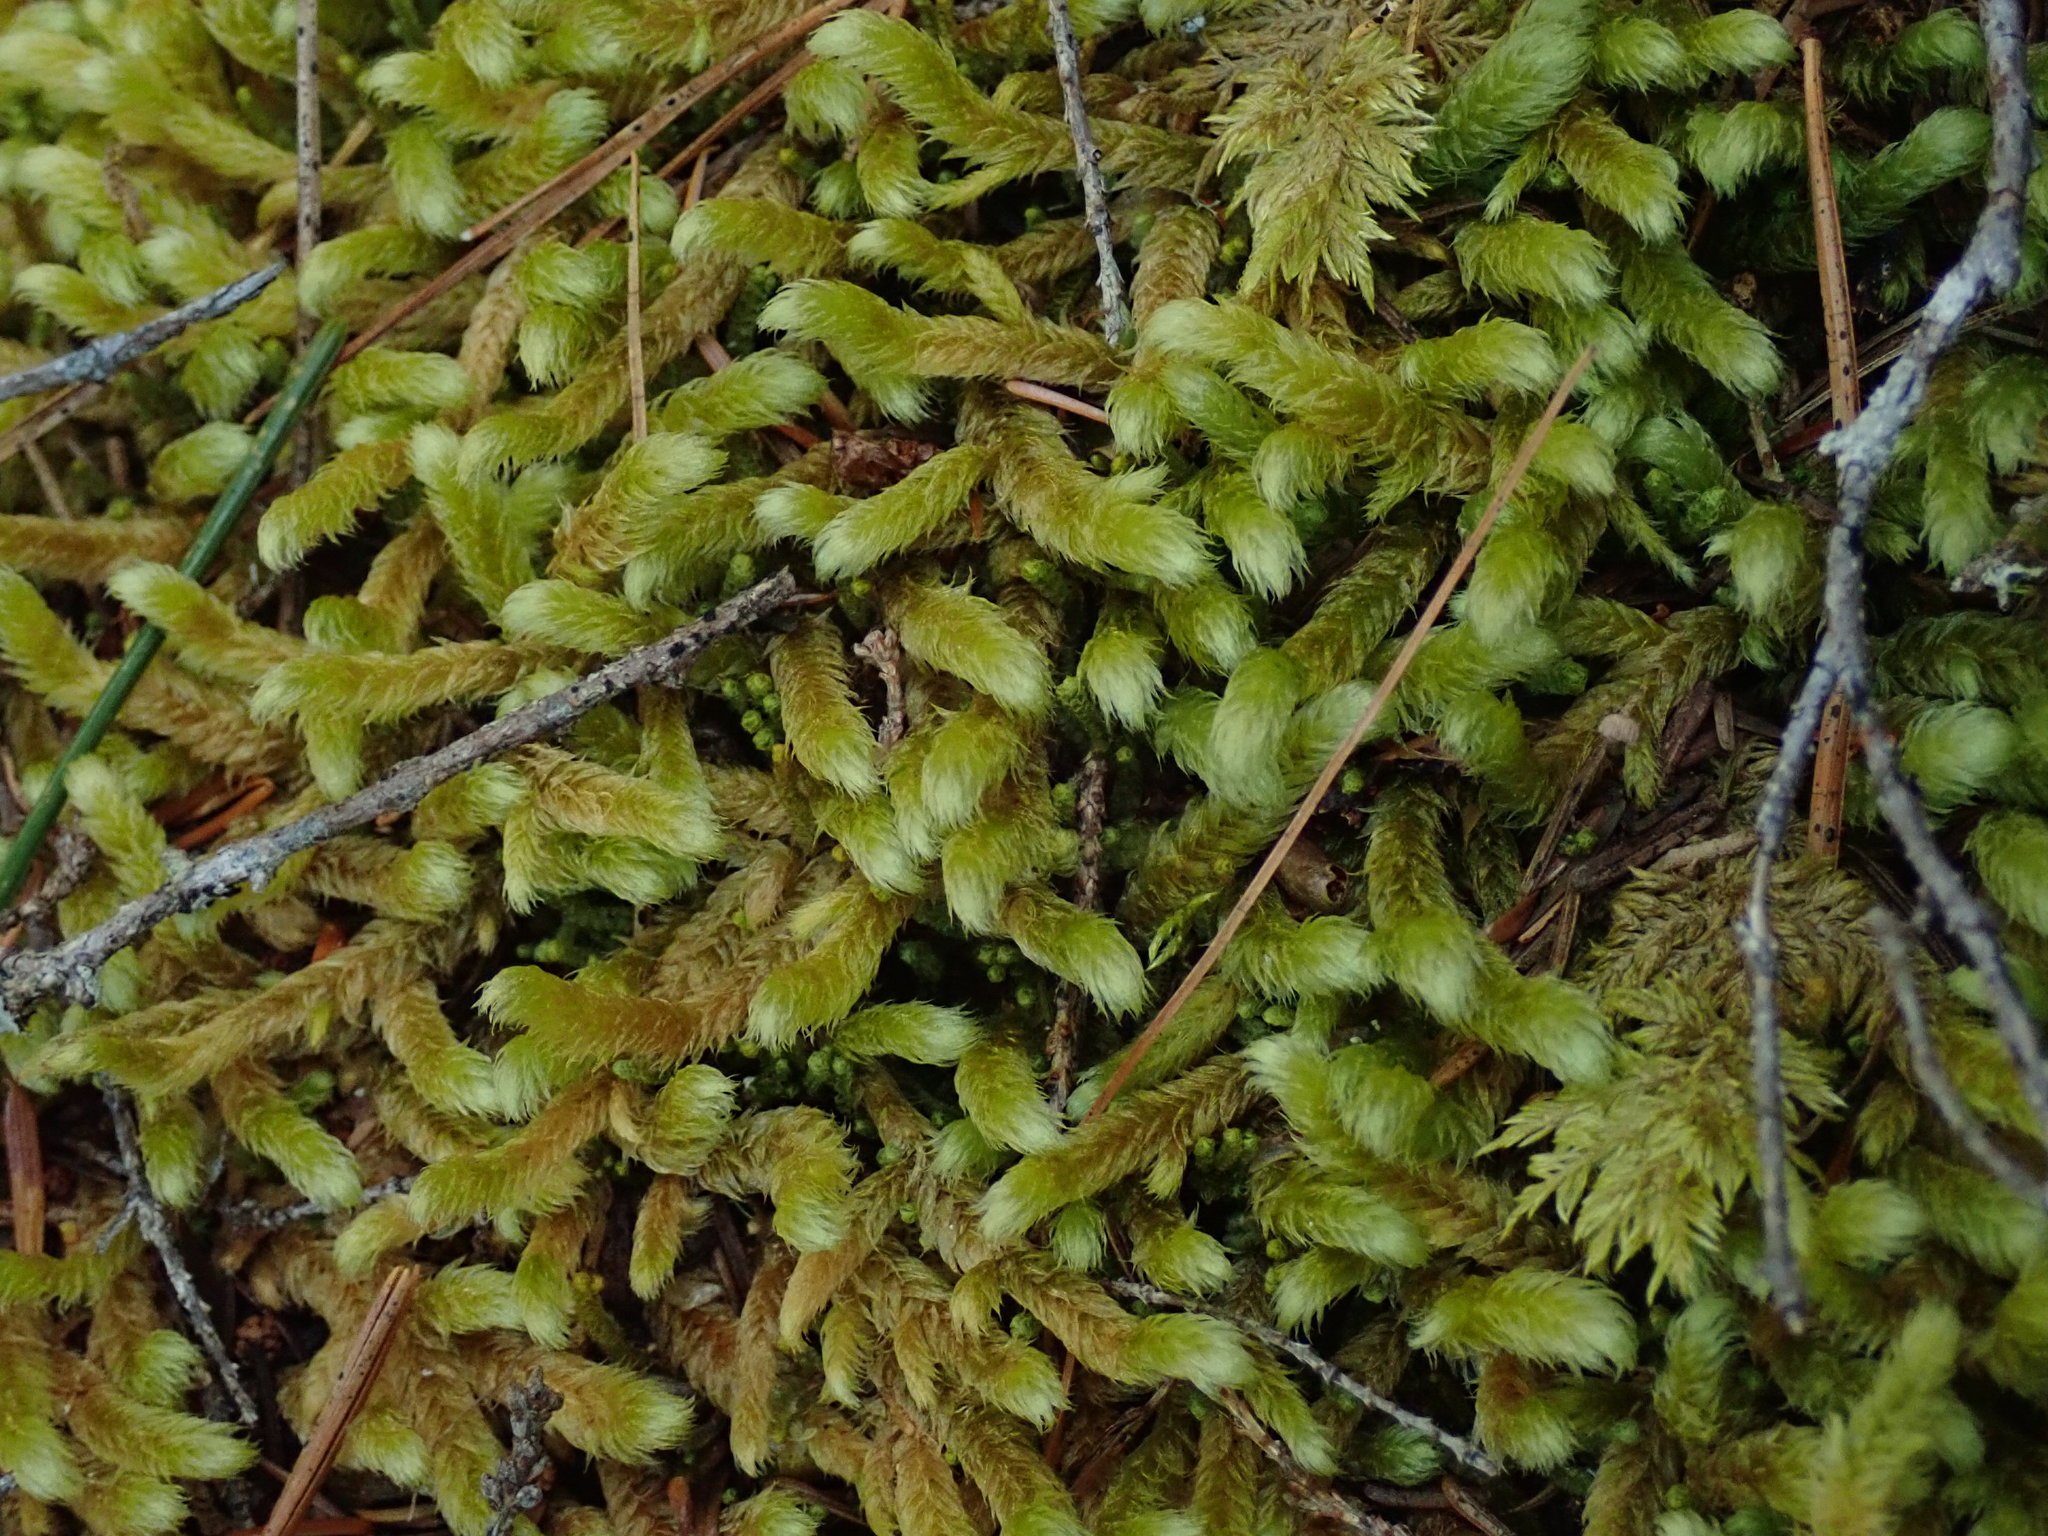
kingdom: Plantae
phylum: Bryophyta
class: Bryopsida
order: Hypnales
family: Hylocomiaceae
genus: Rhytidiopsis
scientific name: Rhytidiopsis robusta
